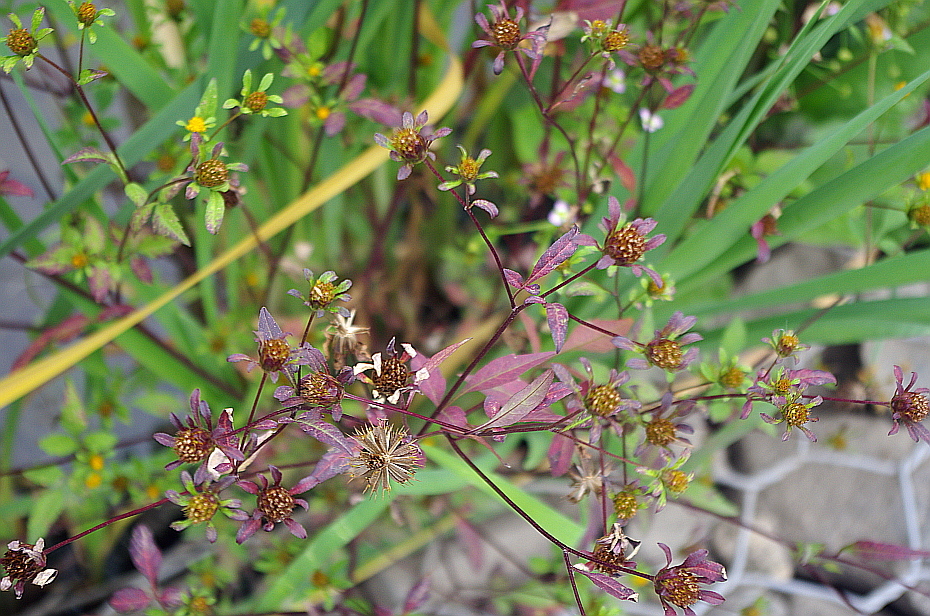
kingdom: Plantae
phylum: Tracheophyta
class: Magnoliopsida
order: Asterales
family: Asteraceae
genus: Bidens
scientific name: Bidens frondosa
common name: Beggarticks
